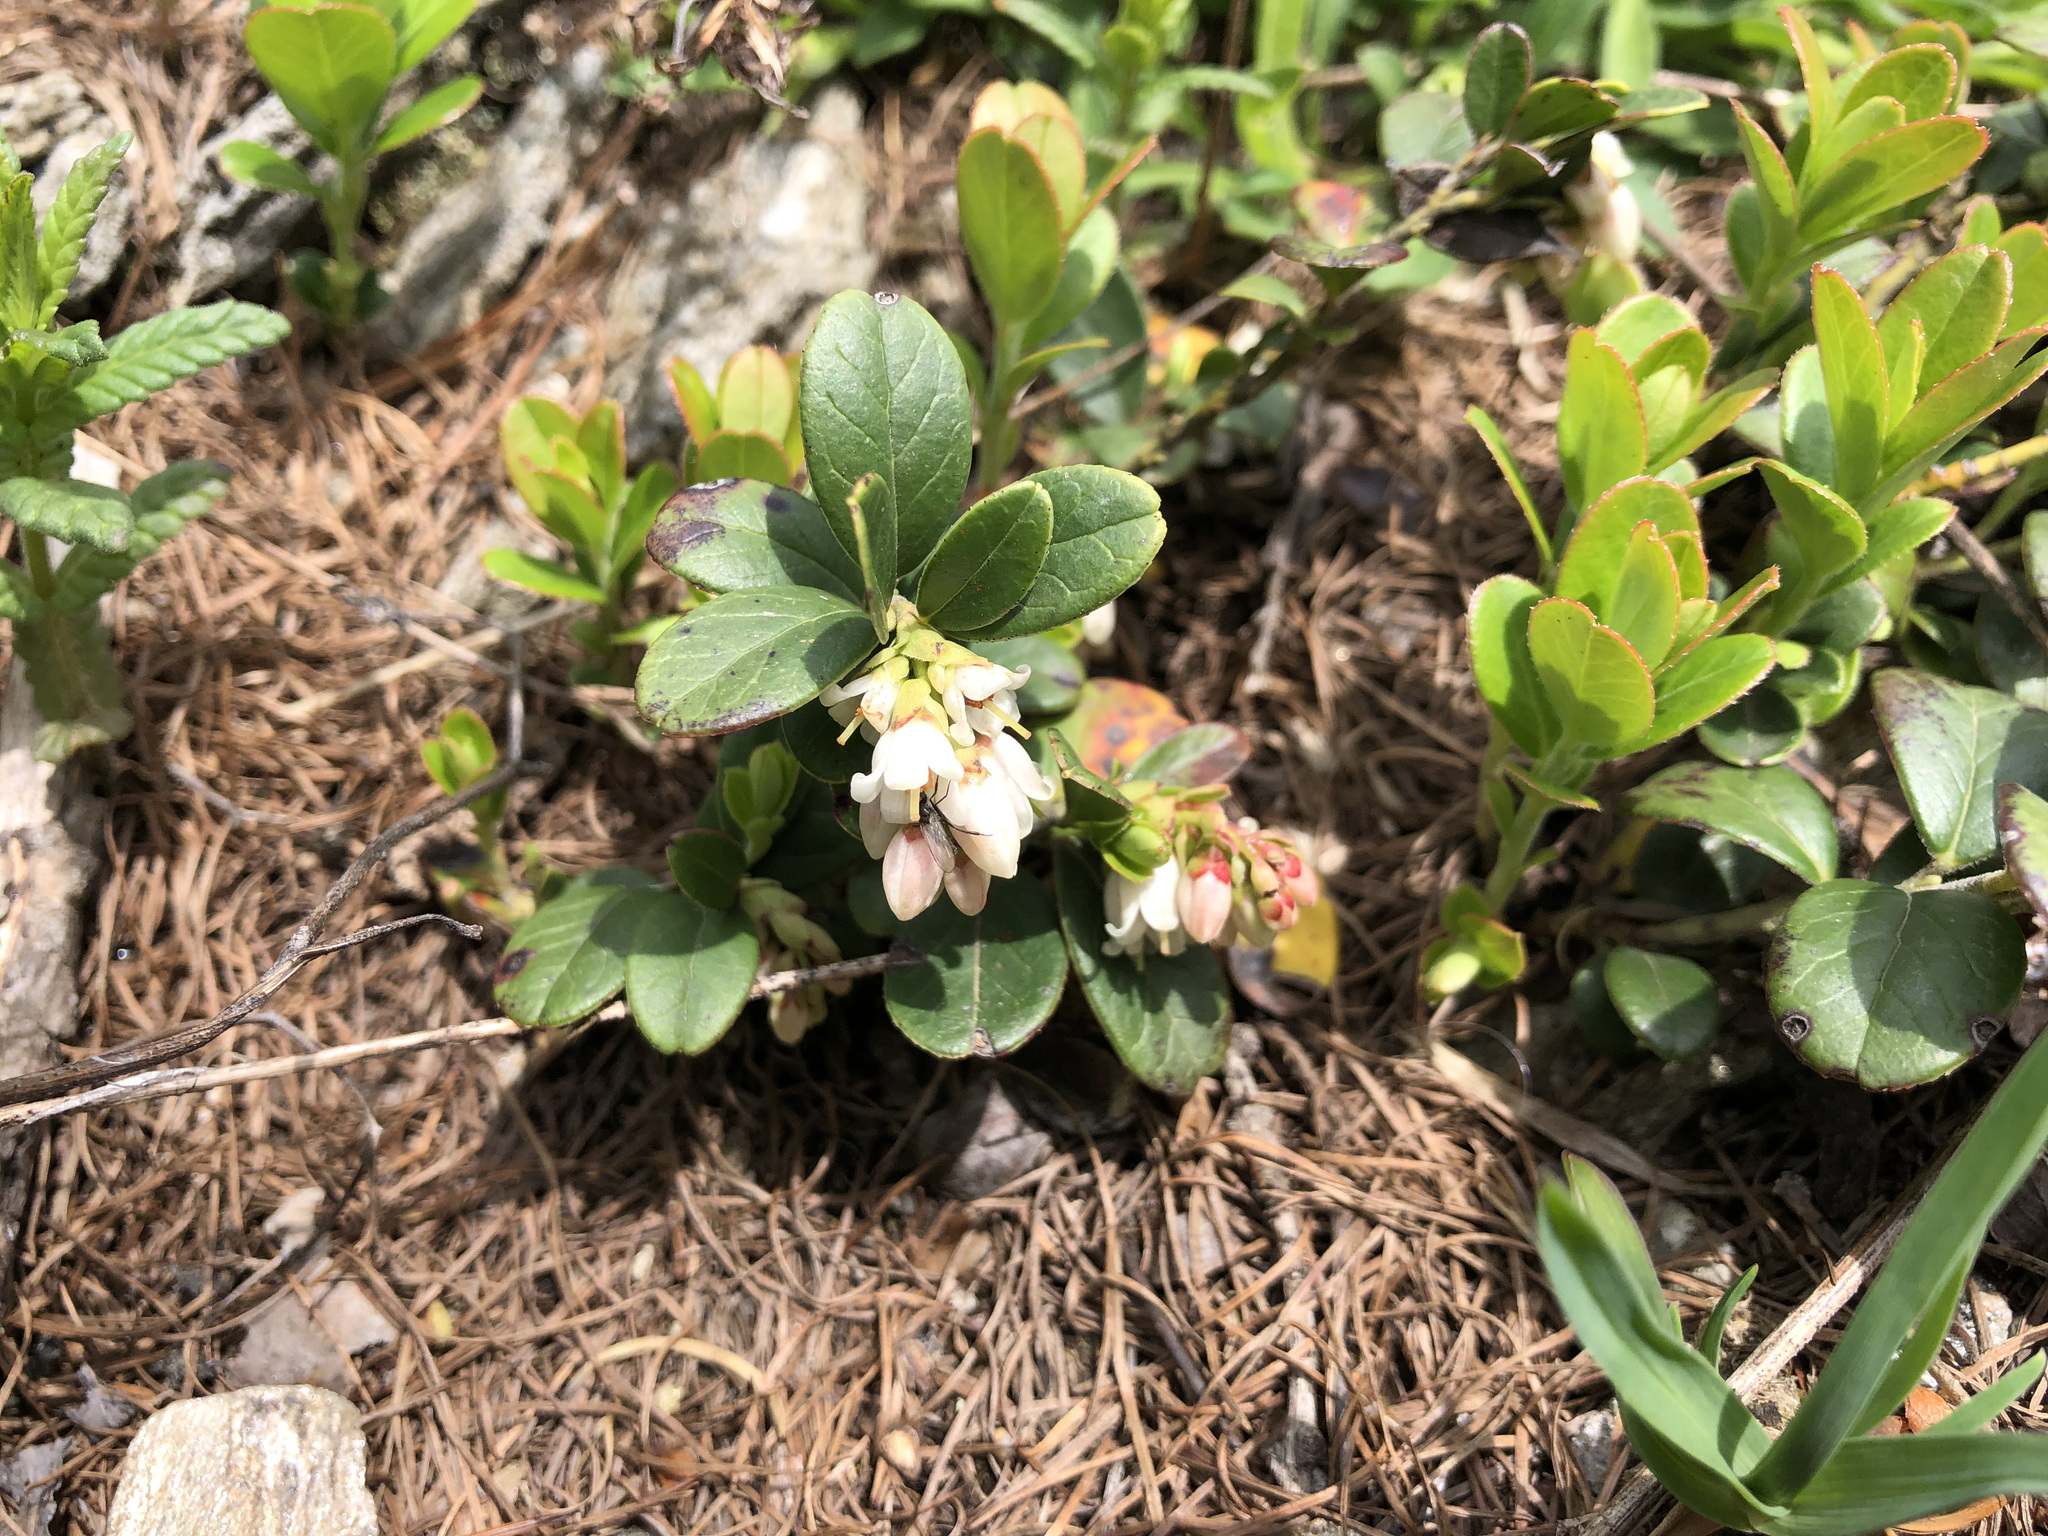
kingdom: Plantae
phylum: Tracheophyta
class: Magnoliopsida
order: Ericales
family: Ericaceae
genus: Vaccinium
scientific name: Vaccinium vitis-idaea
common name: Cowberry
